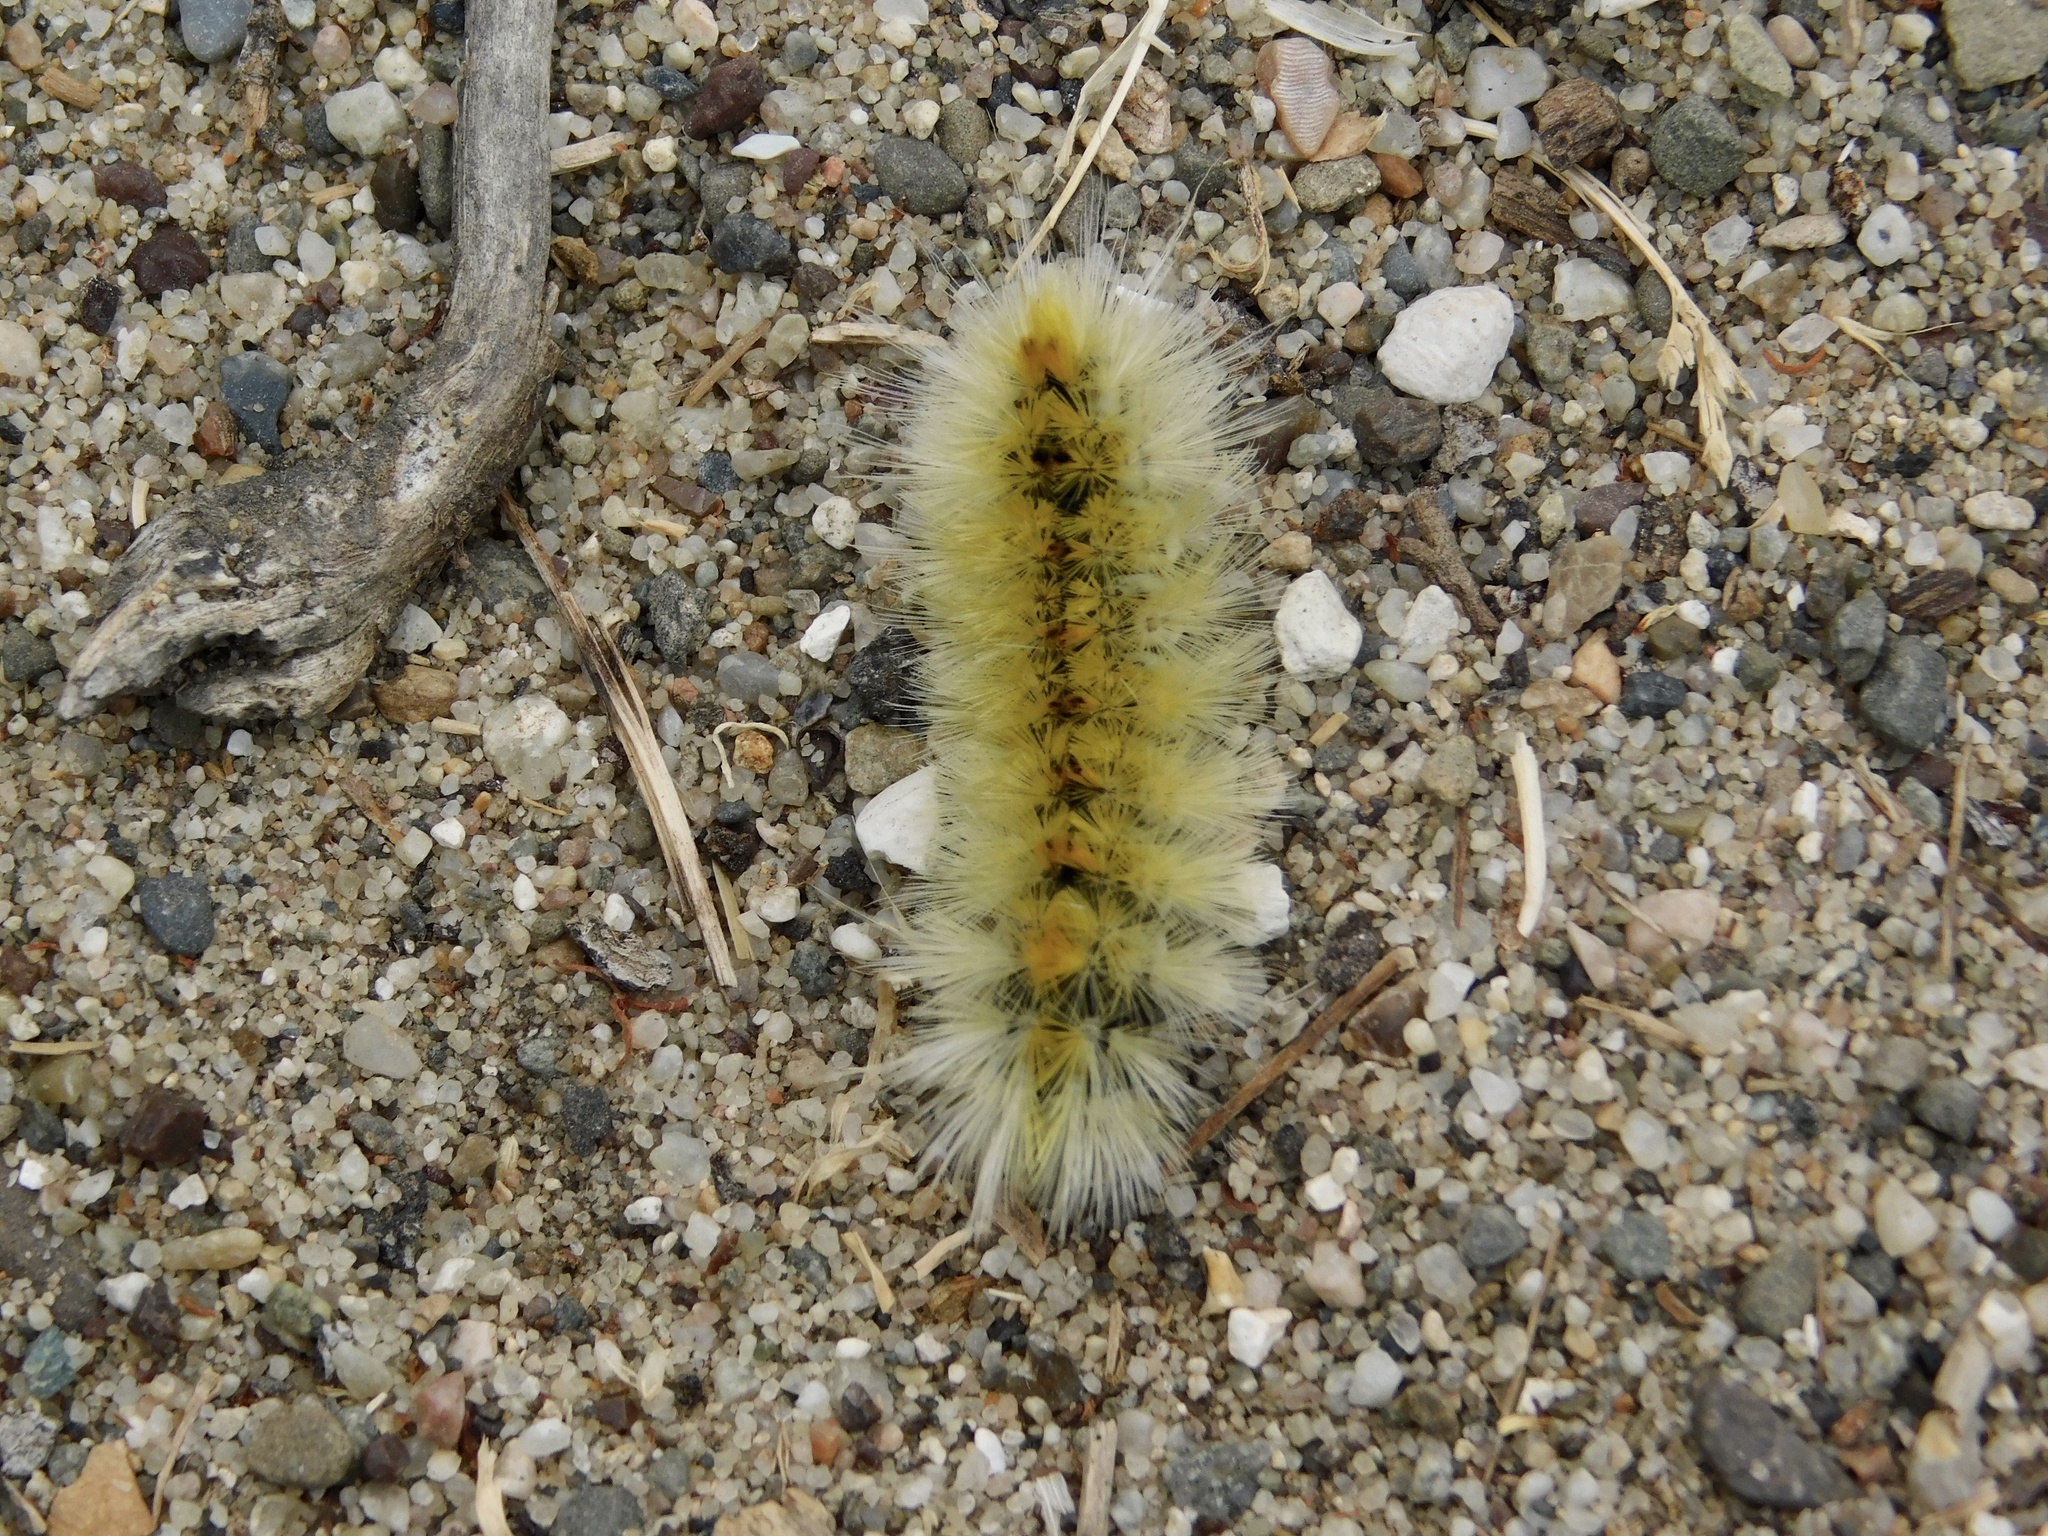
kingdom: Animalia
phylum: Arthropoda
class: Insecta
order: Lepidoptera
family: Erebidae
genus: Lophocampa
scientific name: Lophocampa maculata
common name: Spotted tussock moth
